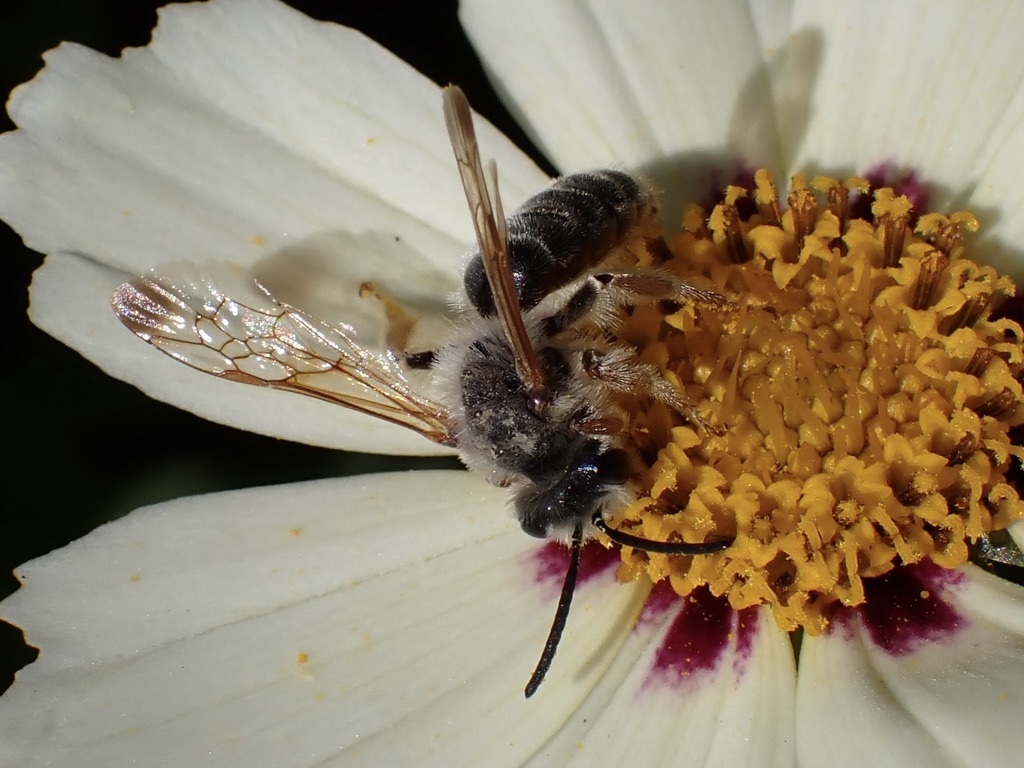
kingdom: Animalia
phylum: Arthropoda
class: Insecta
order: Hymenoptera
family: Andrenidae
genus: Andrena
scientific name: Andrena prunorum
